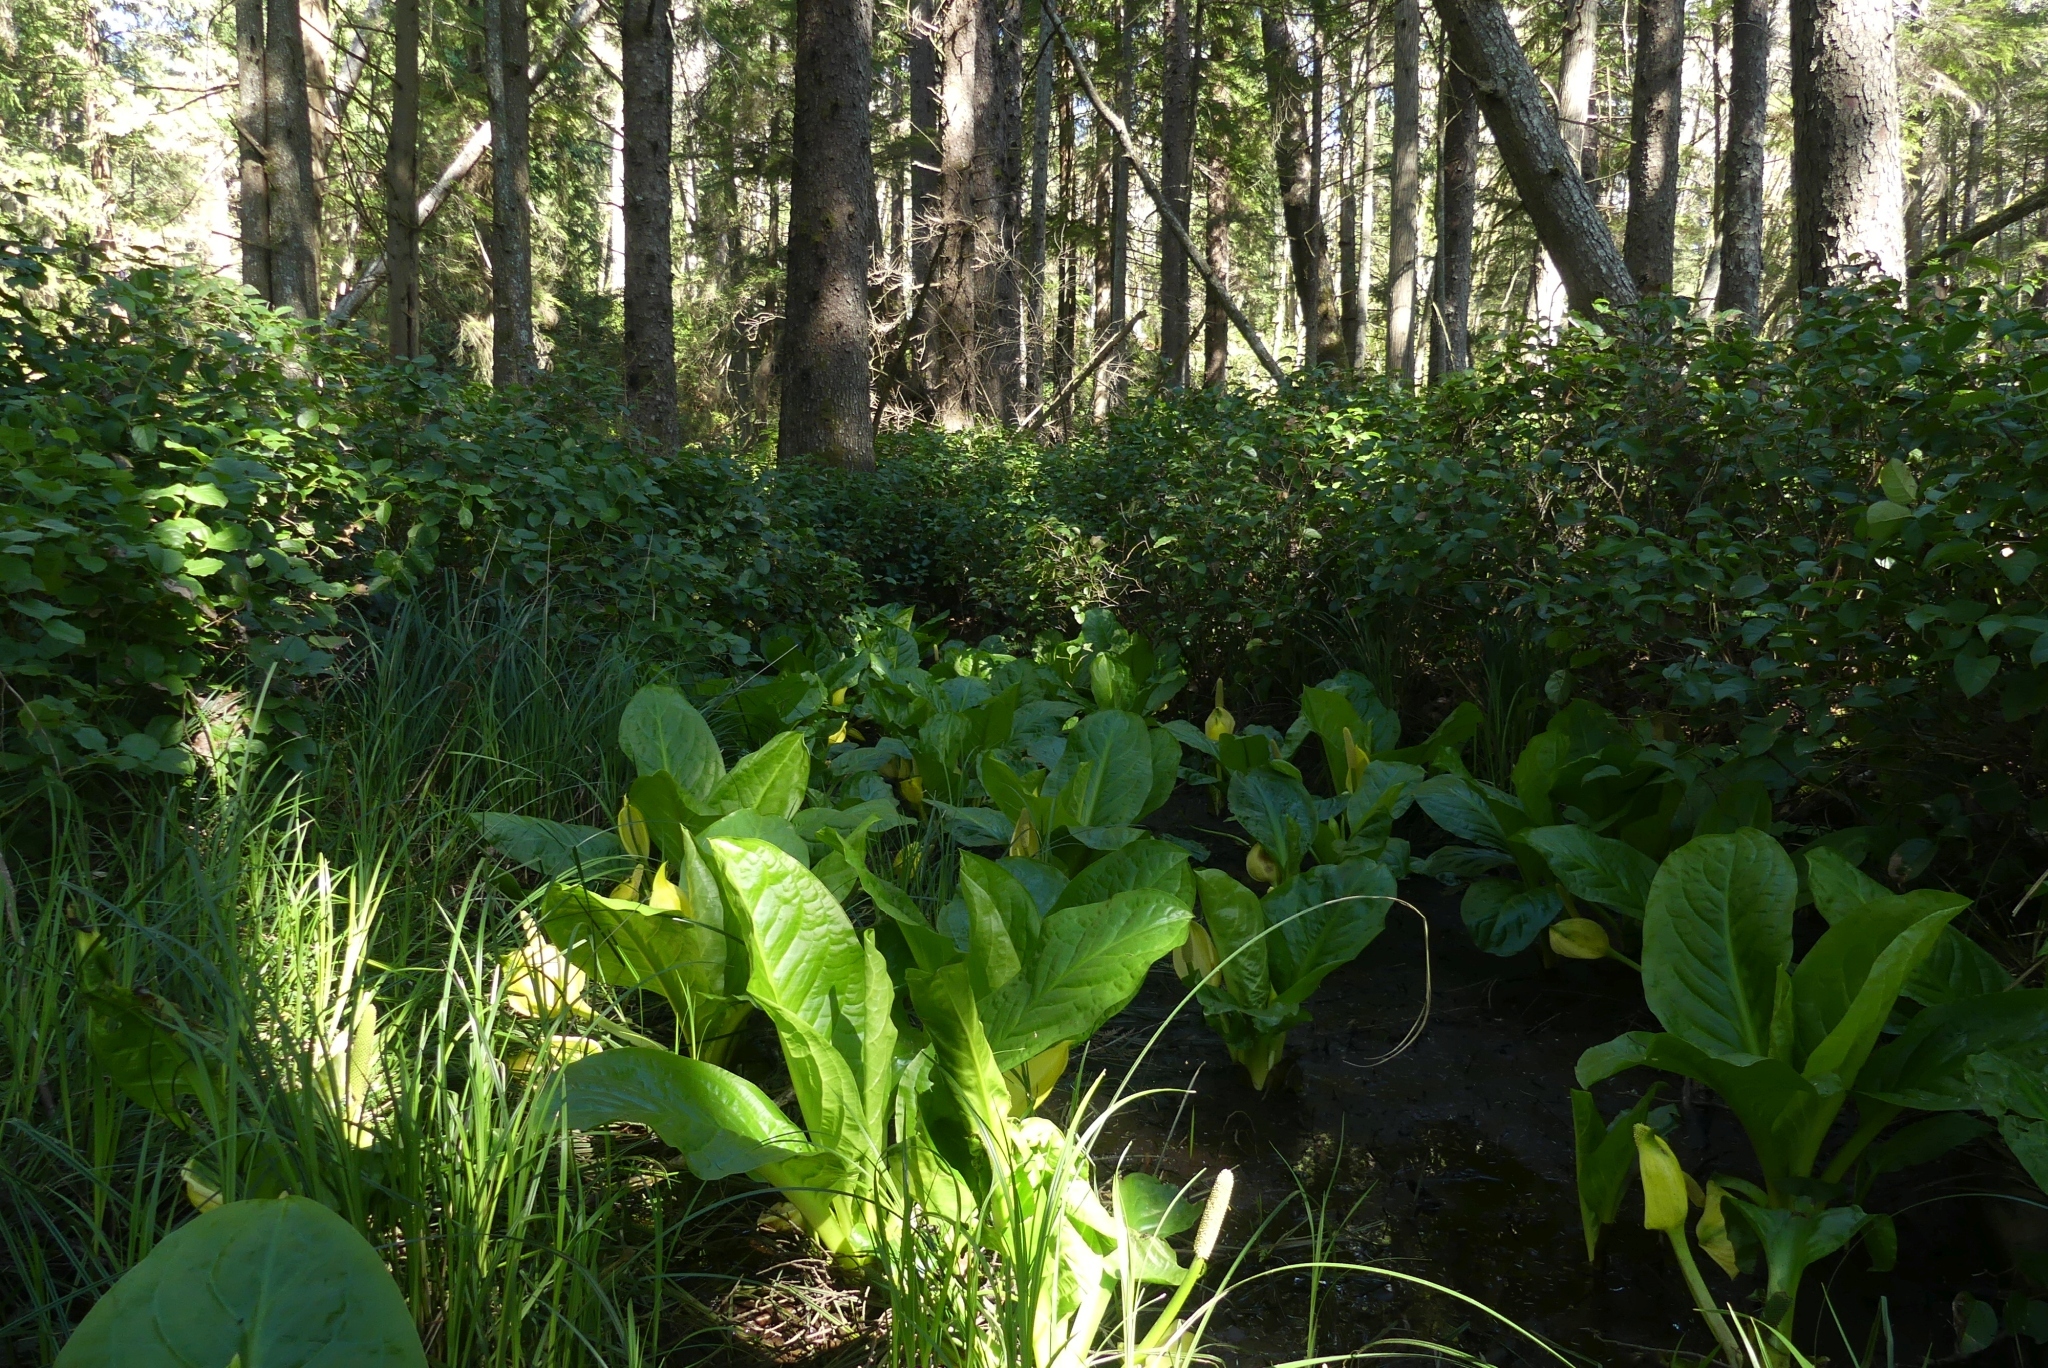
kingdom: Plantae
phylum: Tracheophyta
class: Liliopsida
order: Alismatales
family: Araceae
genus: Lysichiton
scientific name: Lysichiton americanus
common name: American skunk cabbage
